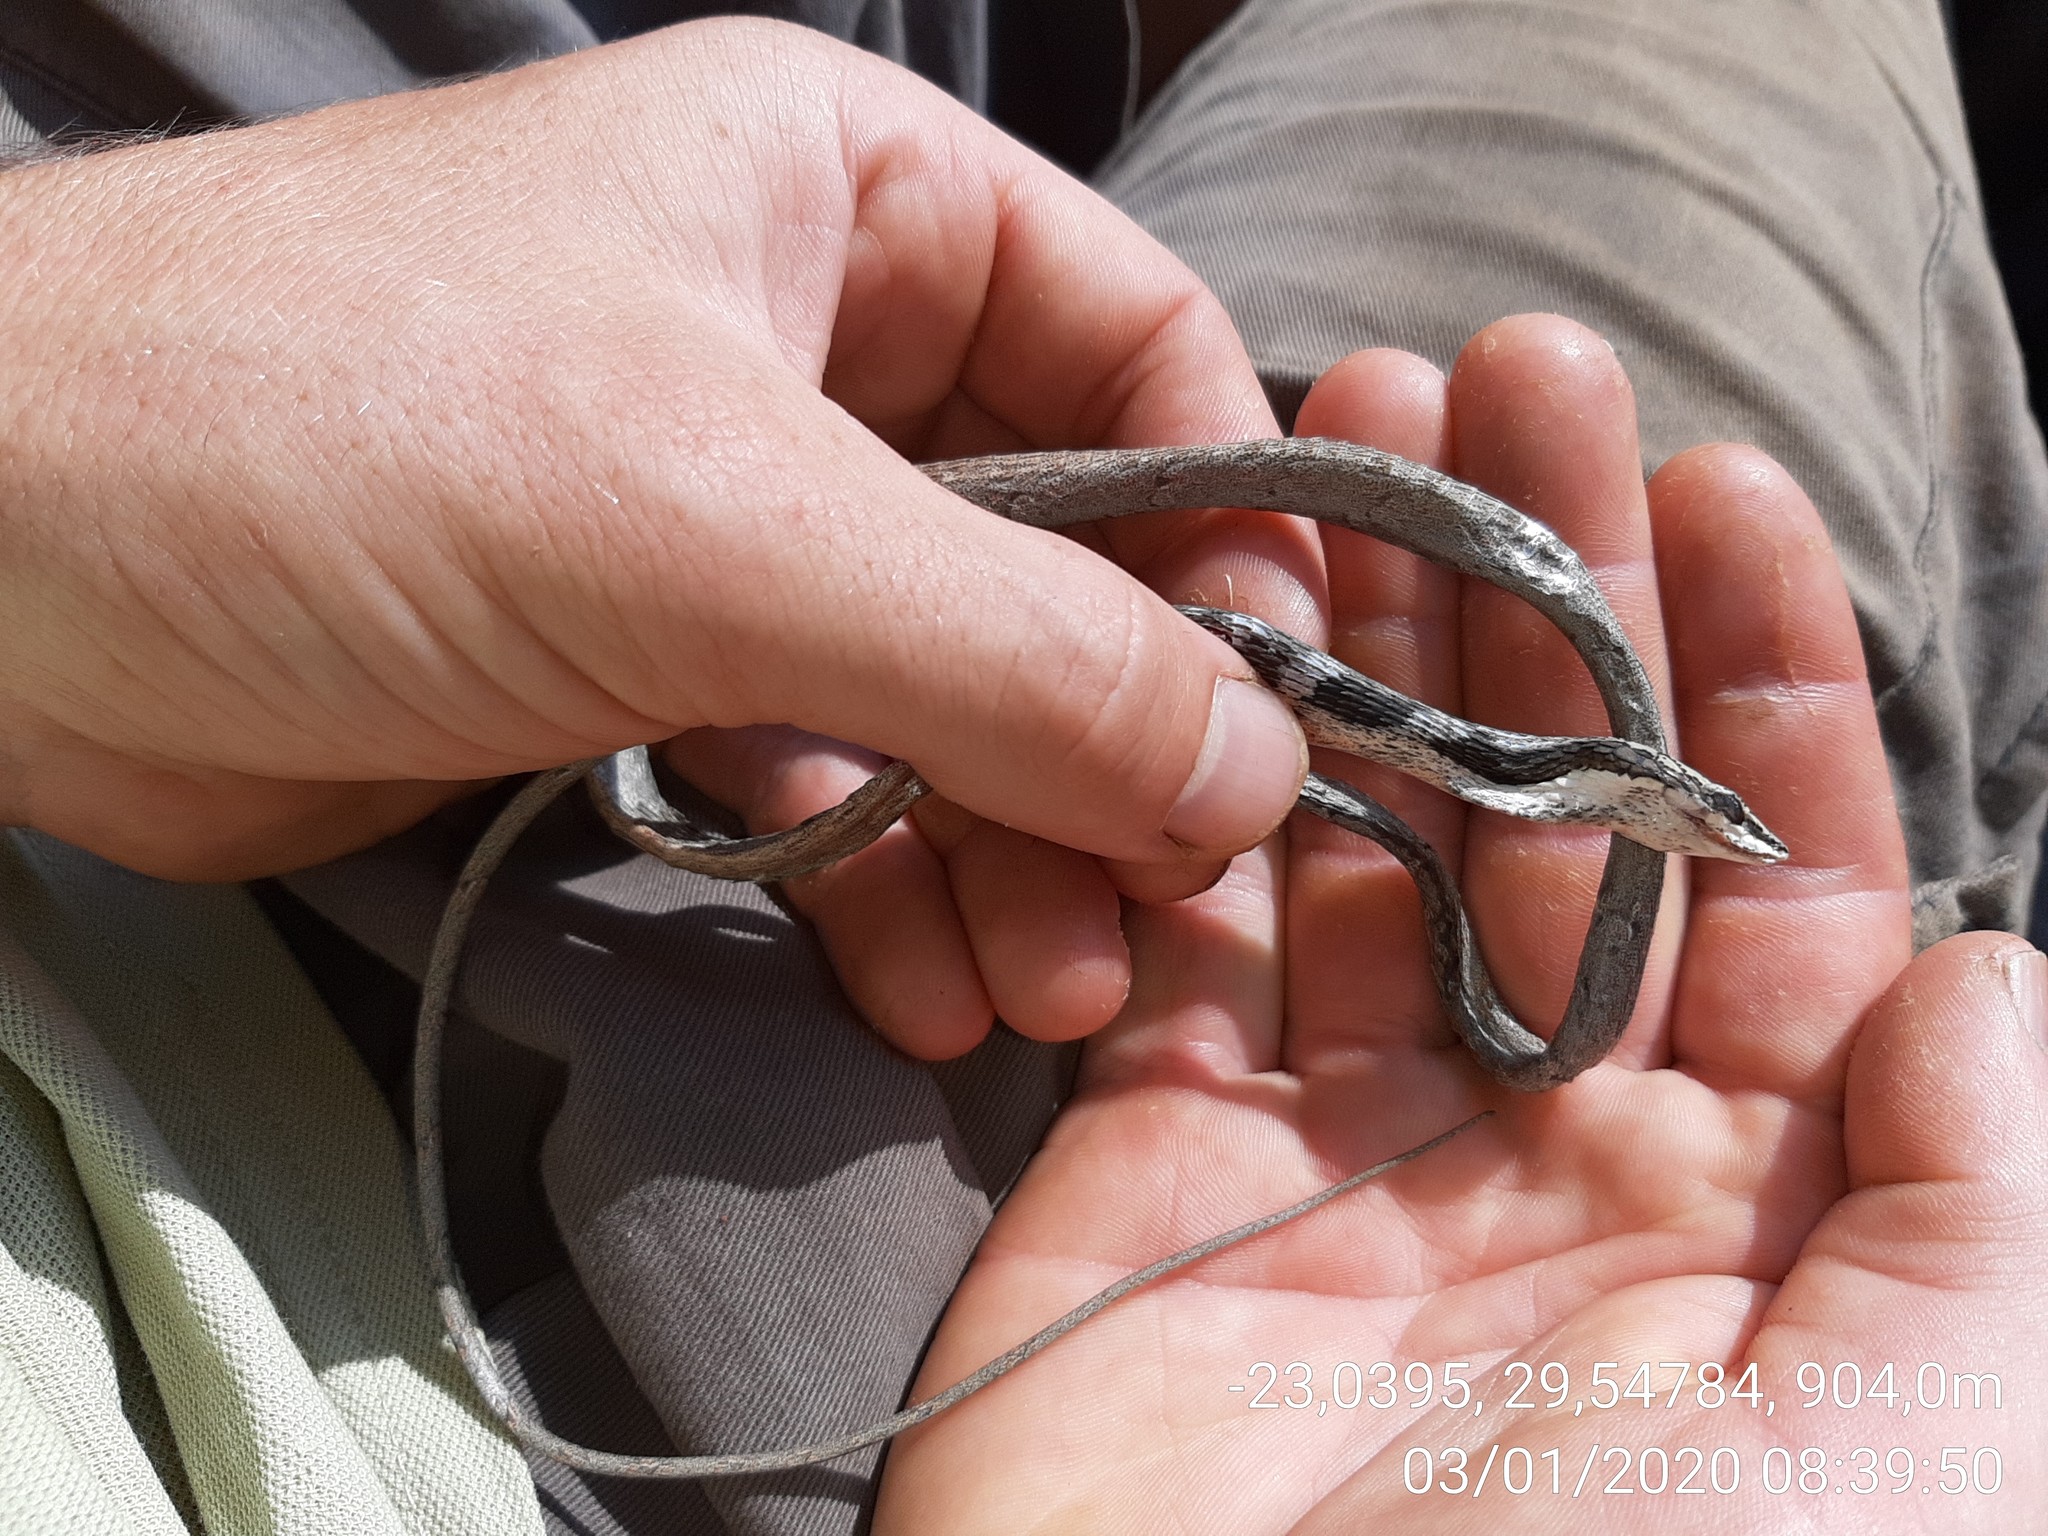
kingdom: Animalia
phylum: Chordata
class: Squamata
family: Colubridae
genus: Thelotornis
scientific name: Thelotornis capensis
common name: Savanna vine snake
